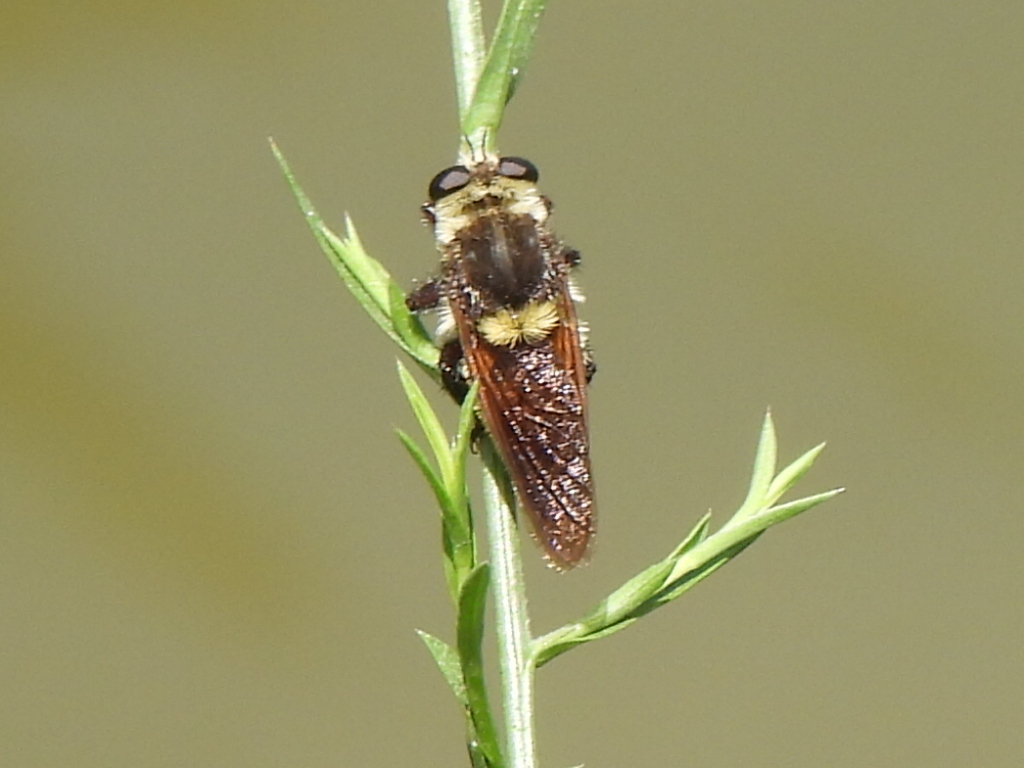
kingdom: Animalia
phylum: Arthropoda
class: Insecta
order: Diptera
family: Asilidae
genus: Mallophora
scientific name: Mallophora fautrix
